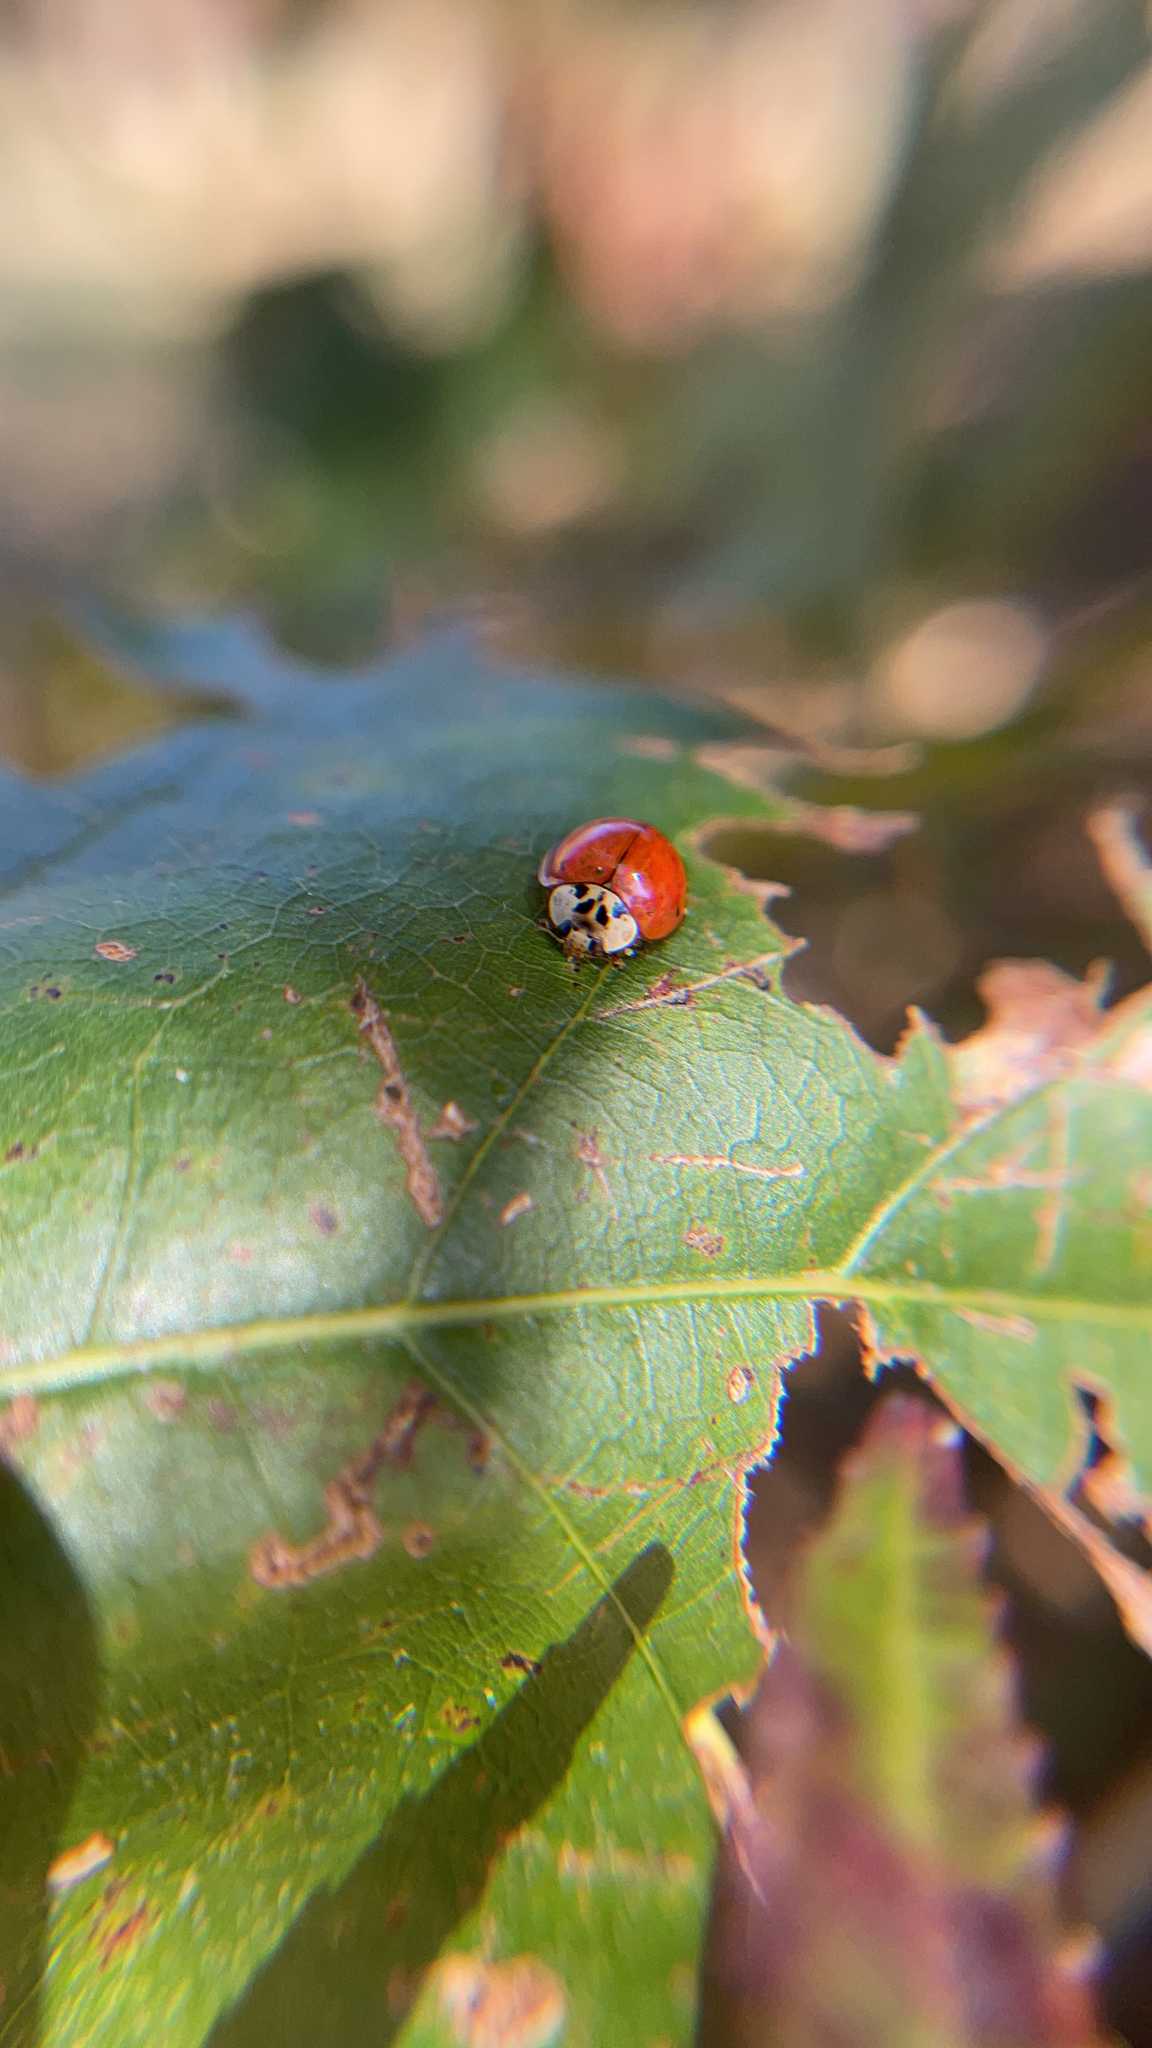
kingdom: Animalia
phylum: Arthropoda
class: Insecta
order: Coleoptera
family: Coccinellidae
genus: Harmonia
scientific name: Harmonia axyridis
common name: Harlequin ladybird
